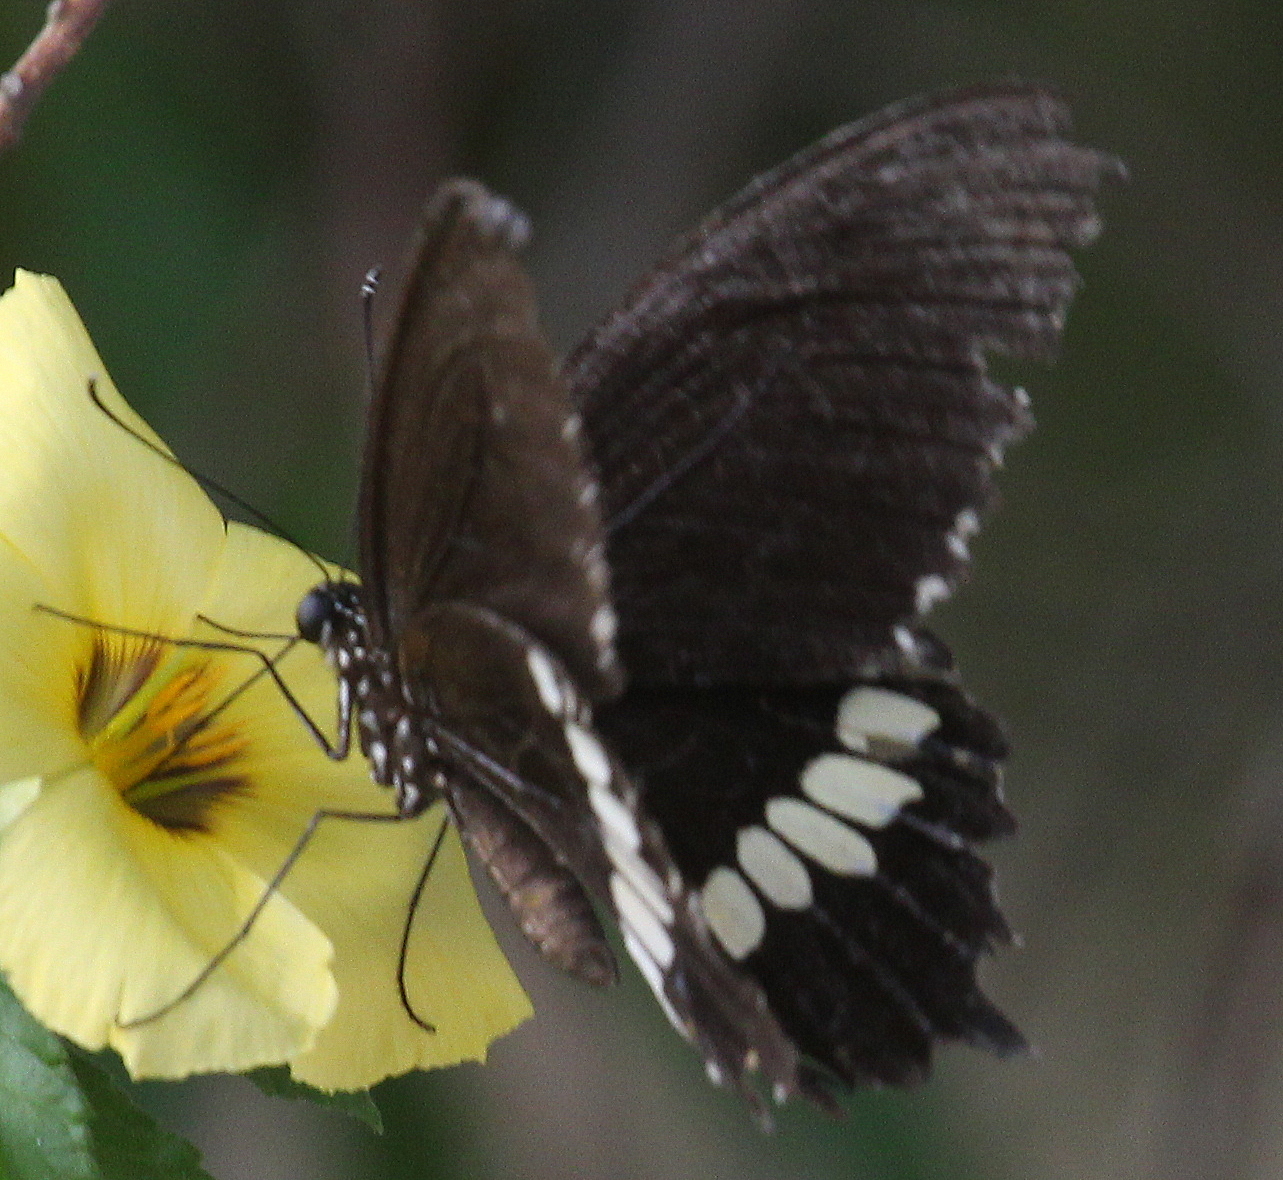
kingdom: Animalia
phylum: Arthropoda
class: Insecta
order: Lepidoptera
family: Papilionidae
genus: Papilio
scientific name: Papilio polytes
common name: Common mormon
